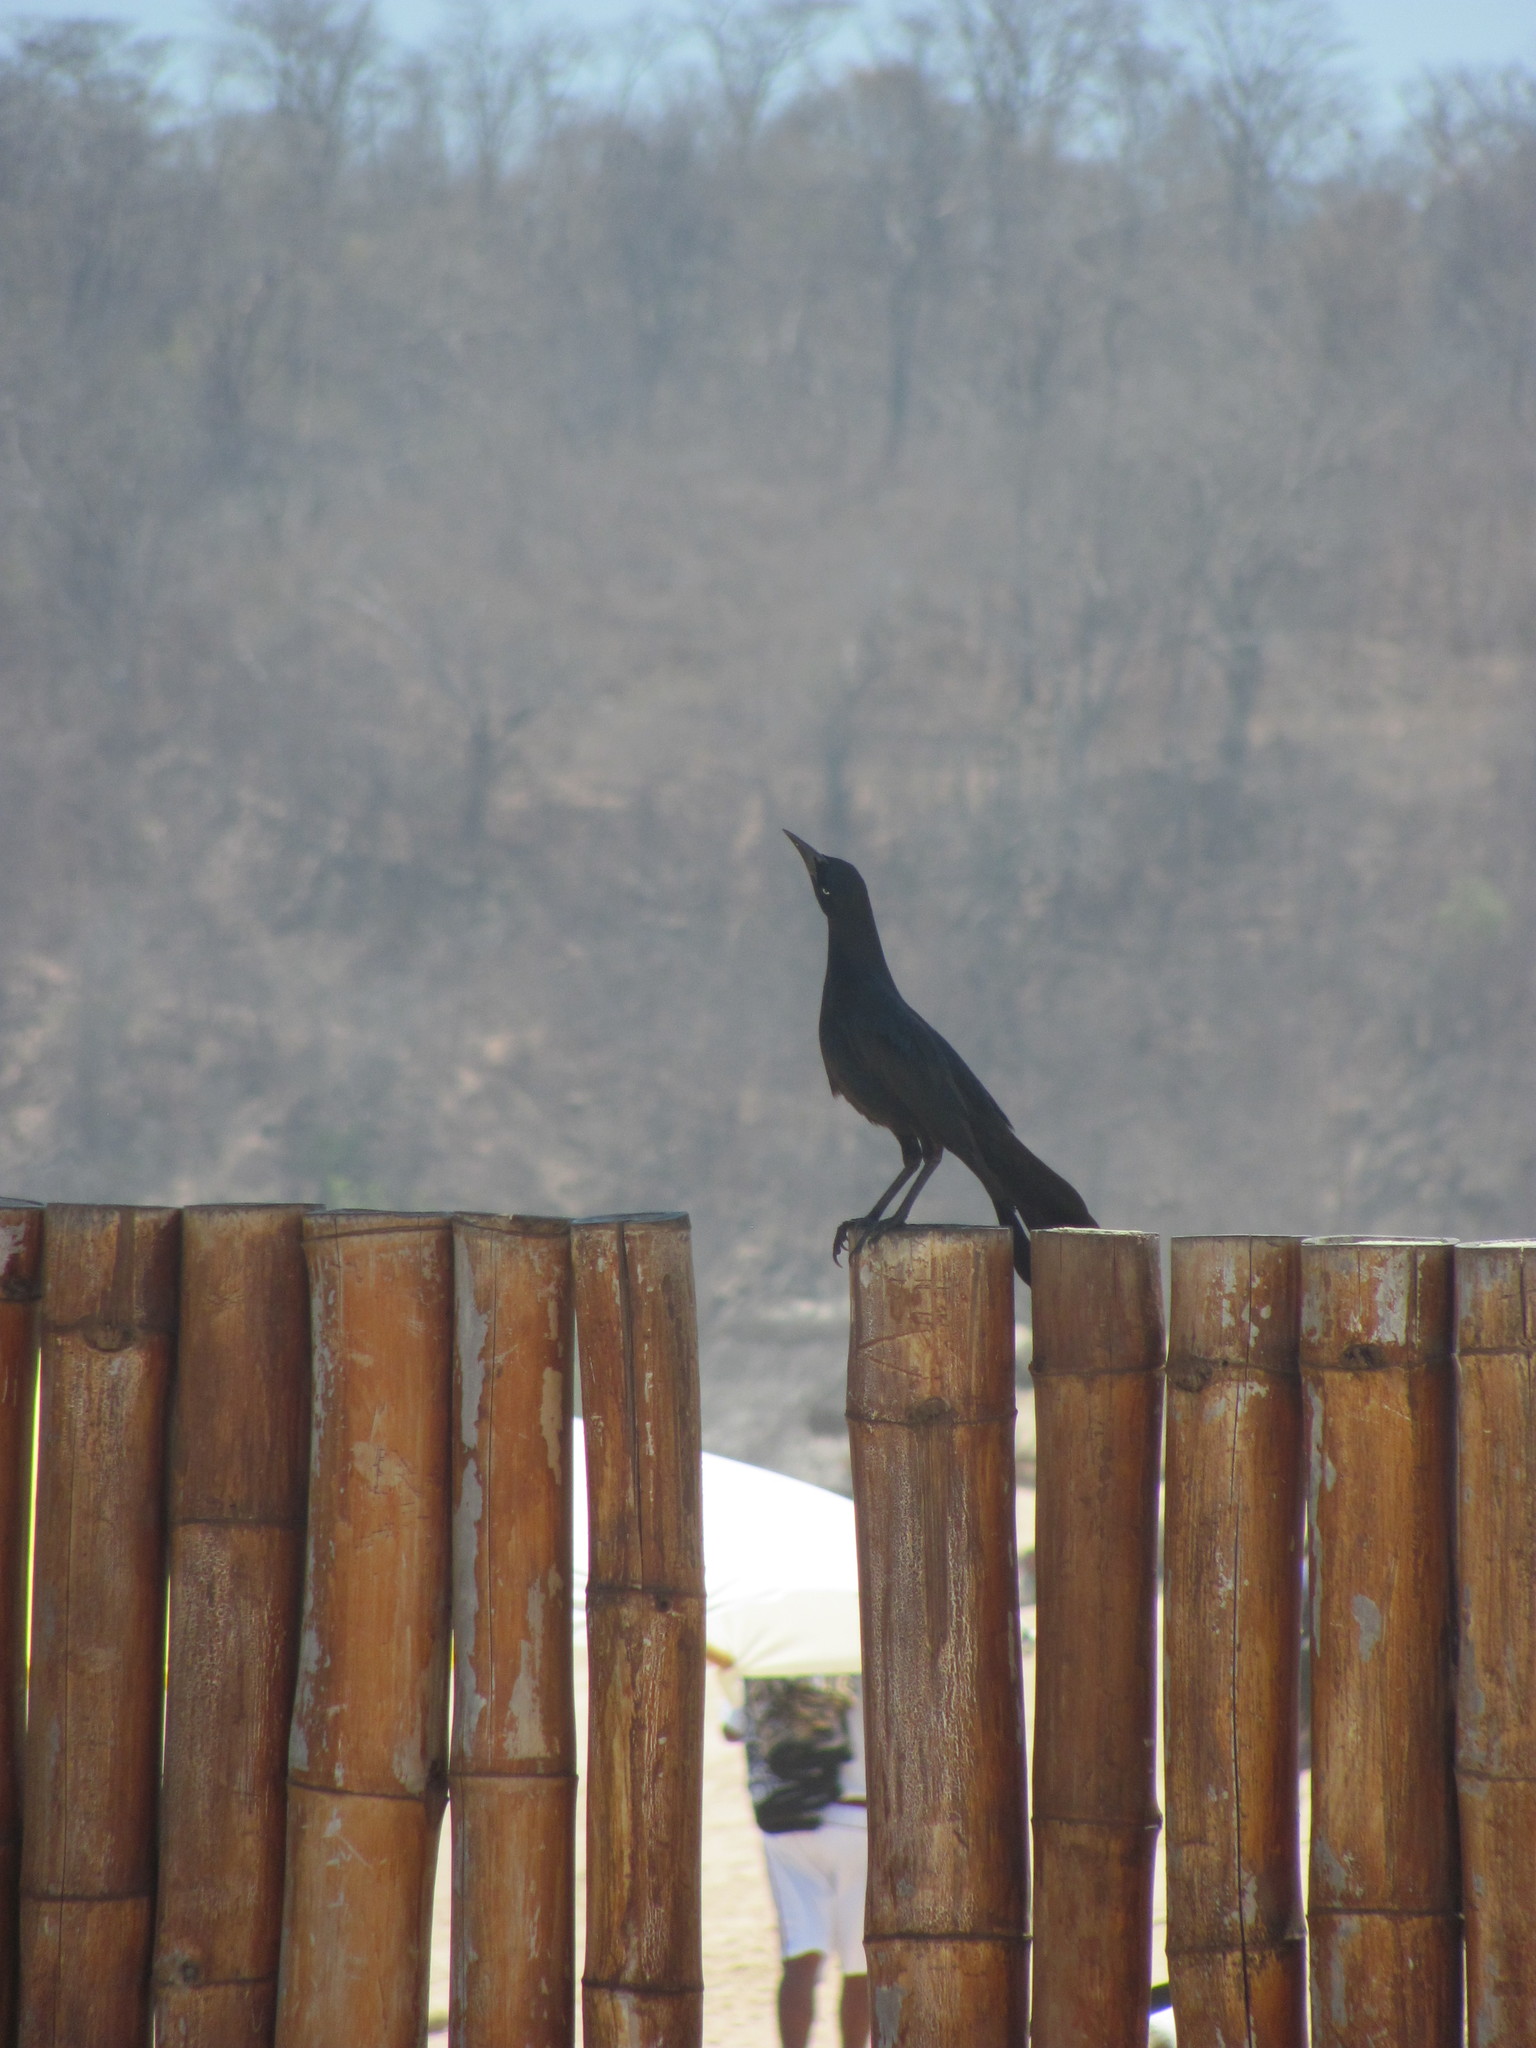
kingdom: Animalia
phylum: Chordata
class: Aves
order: Passeriformes
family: Icteridae
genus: Quiscalus
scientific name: Quiscalus mexicanus
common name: Great-tailed grackle
